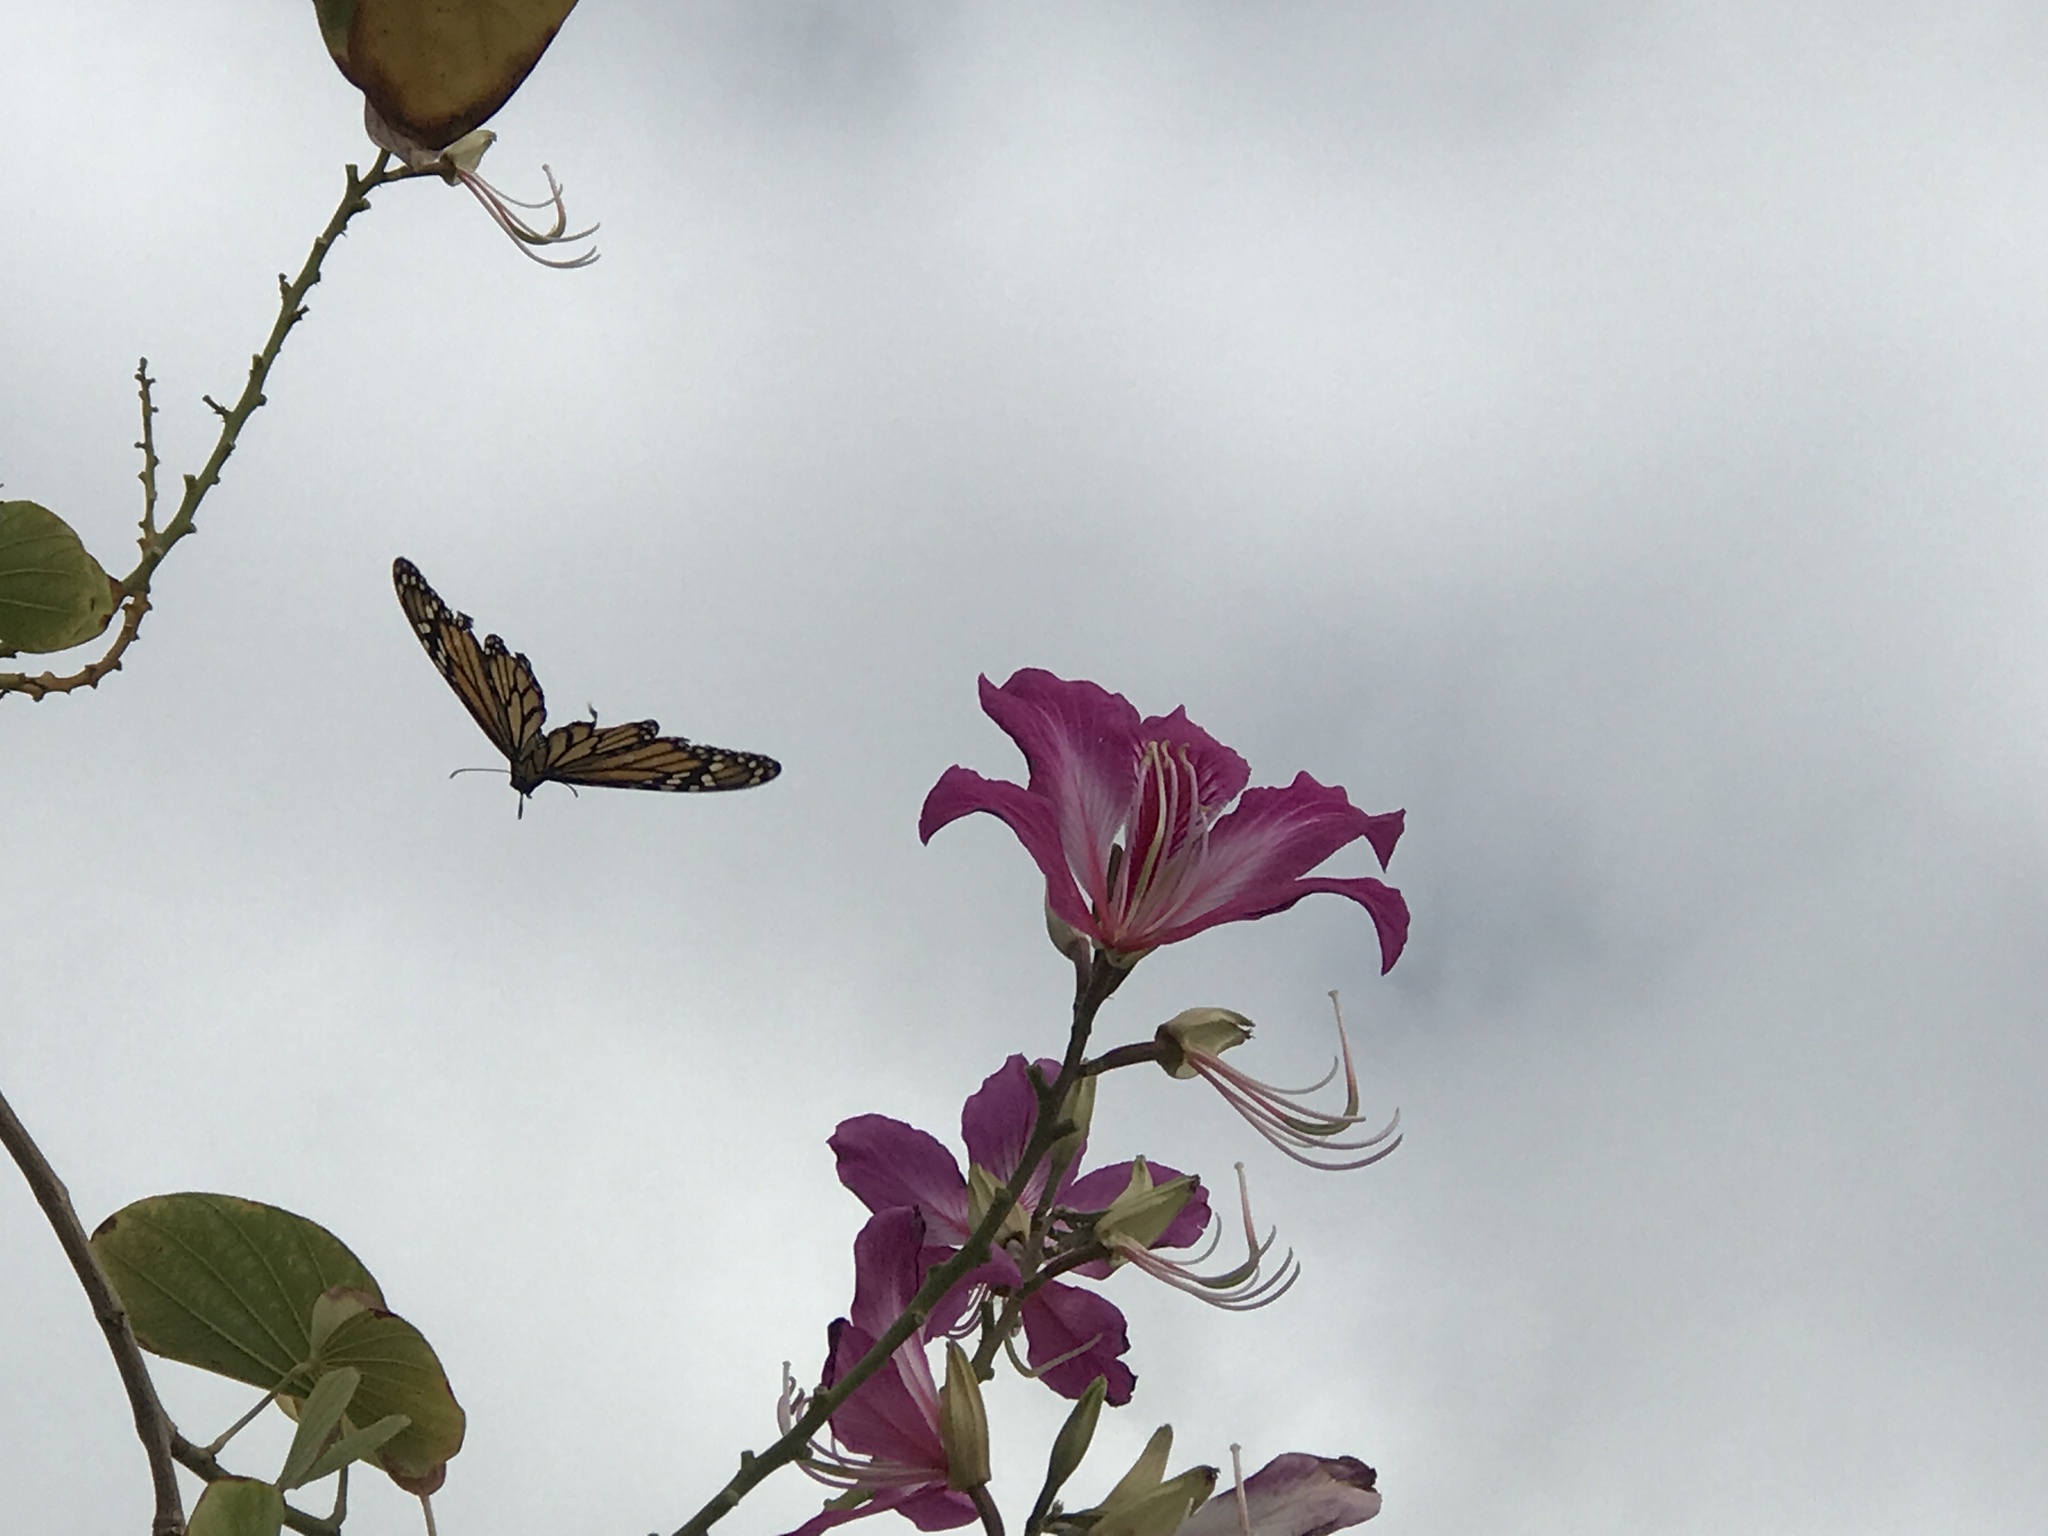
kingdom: Animalia
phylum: Arthropoda
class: Insecta
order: Lepidoptera
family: Nymphalidae
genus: Danaus
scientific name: Danaus plexippus
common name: Monarch
